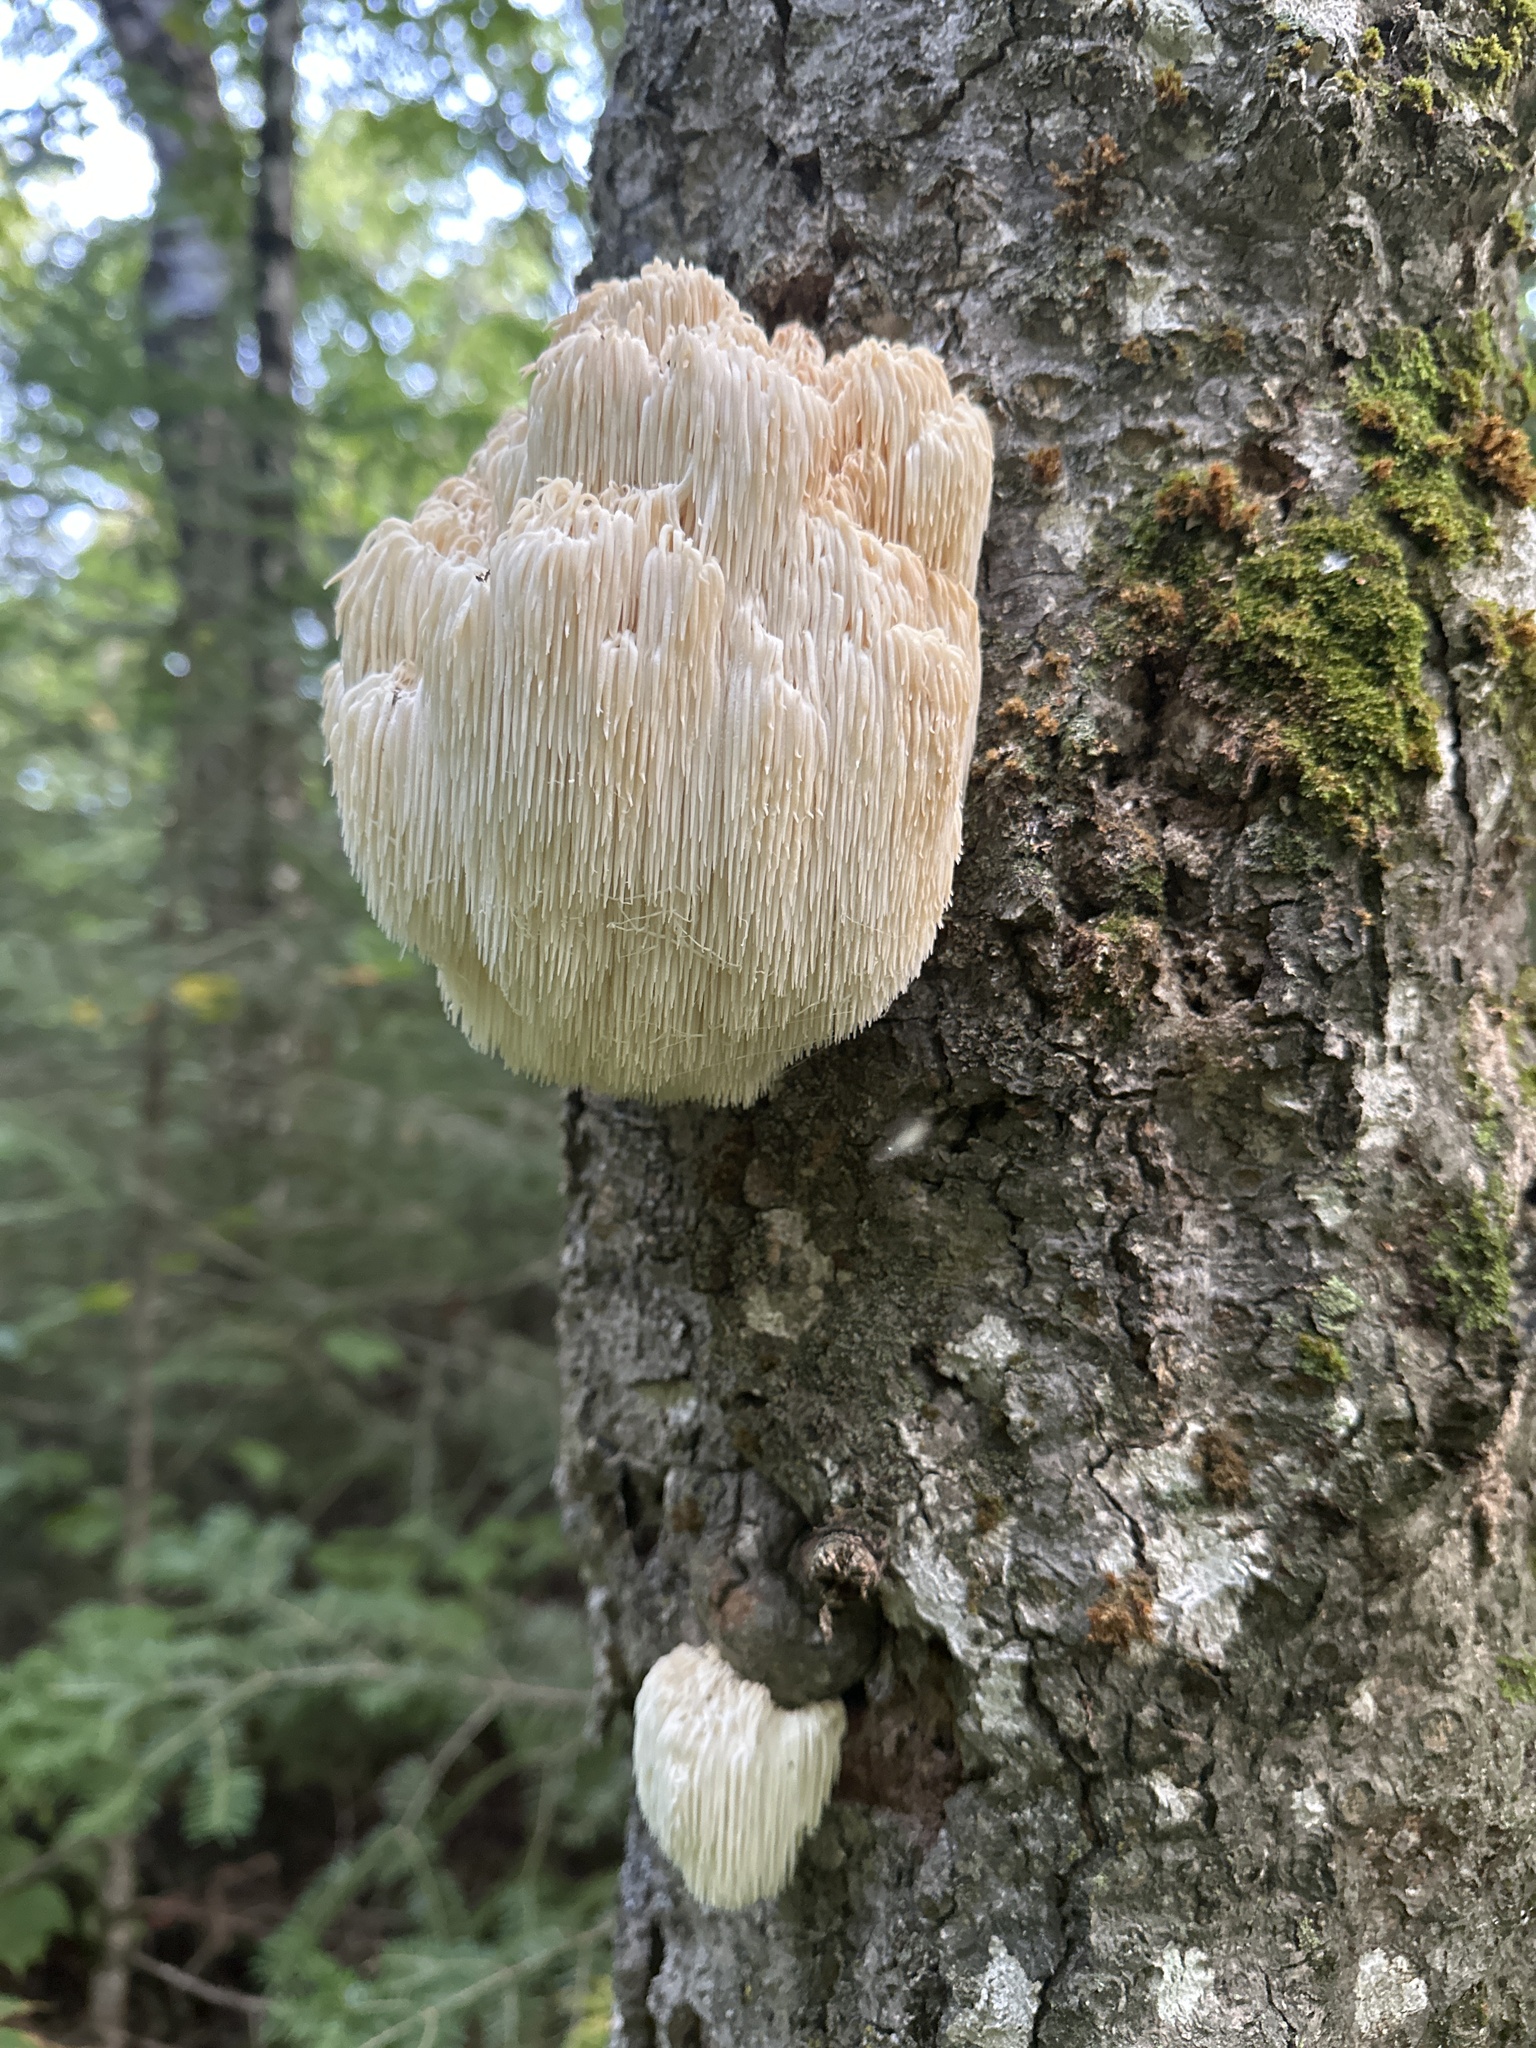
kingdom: Fungi
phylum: Basidiomycota
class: Agaricomycetes
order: Russulales
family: Hericiaceae
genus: Hericium
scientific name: Hericium americanum
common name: Bear's head tooth
